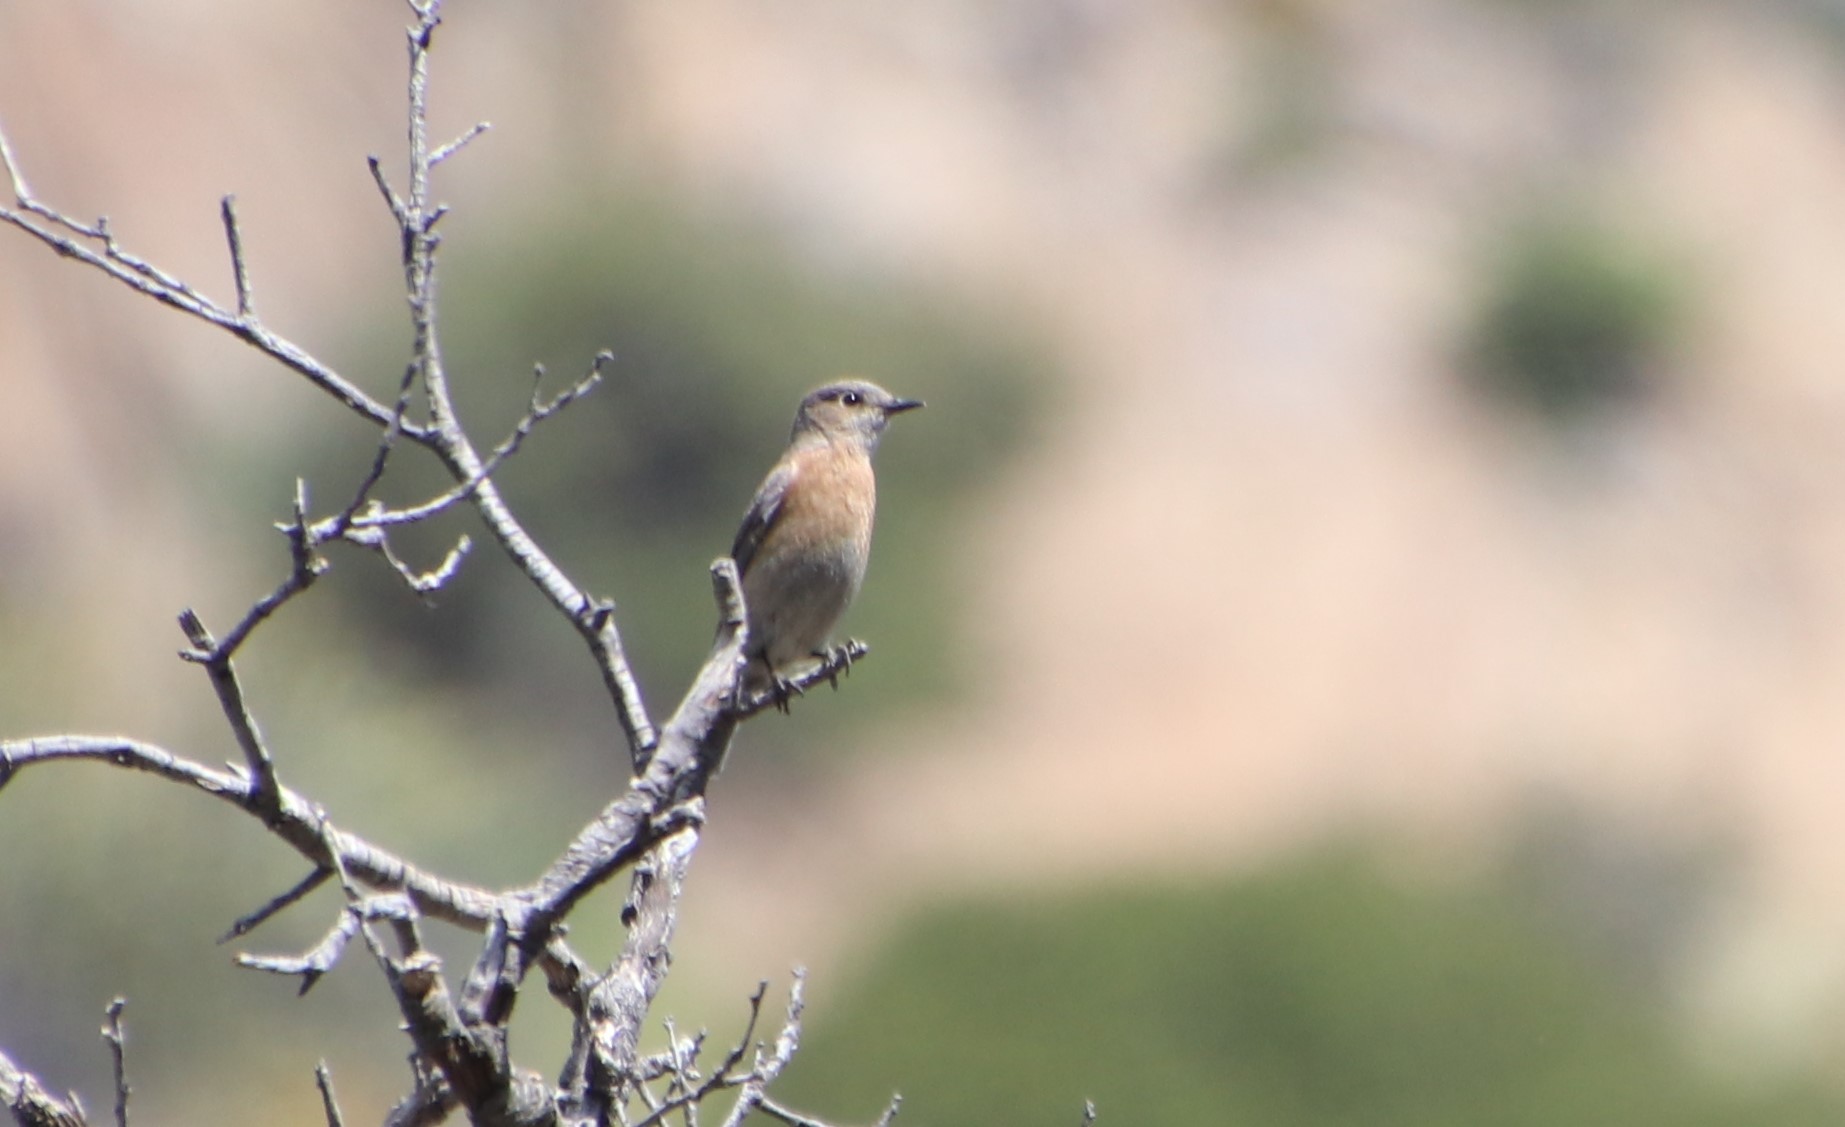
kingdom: Animalia
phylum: Chordata
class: Aves
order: Passeriformes
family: Turdidae
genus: Sialia
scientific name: Sialia mexicana
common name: Western bluebird
